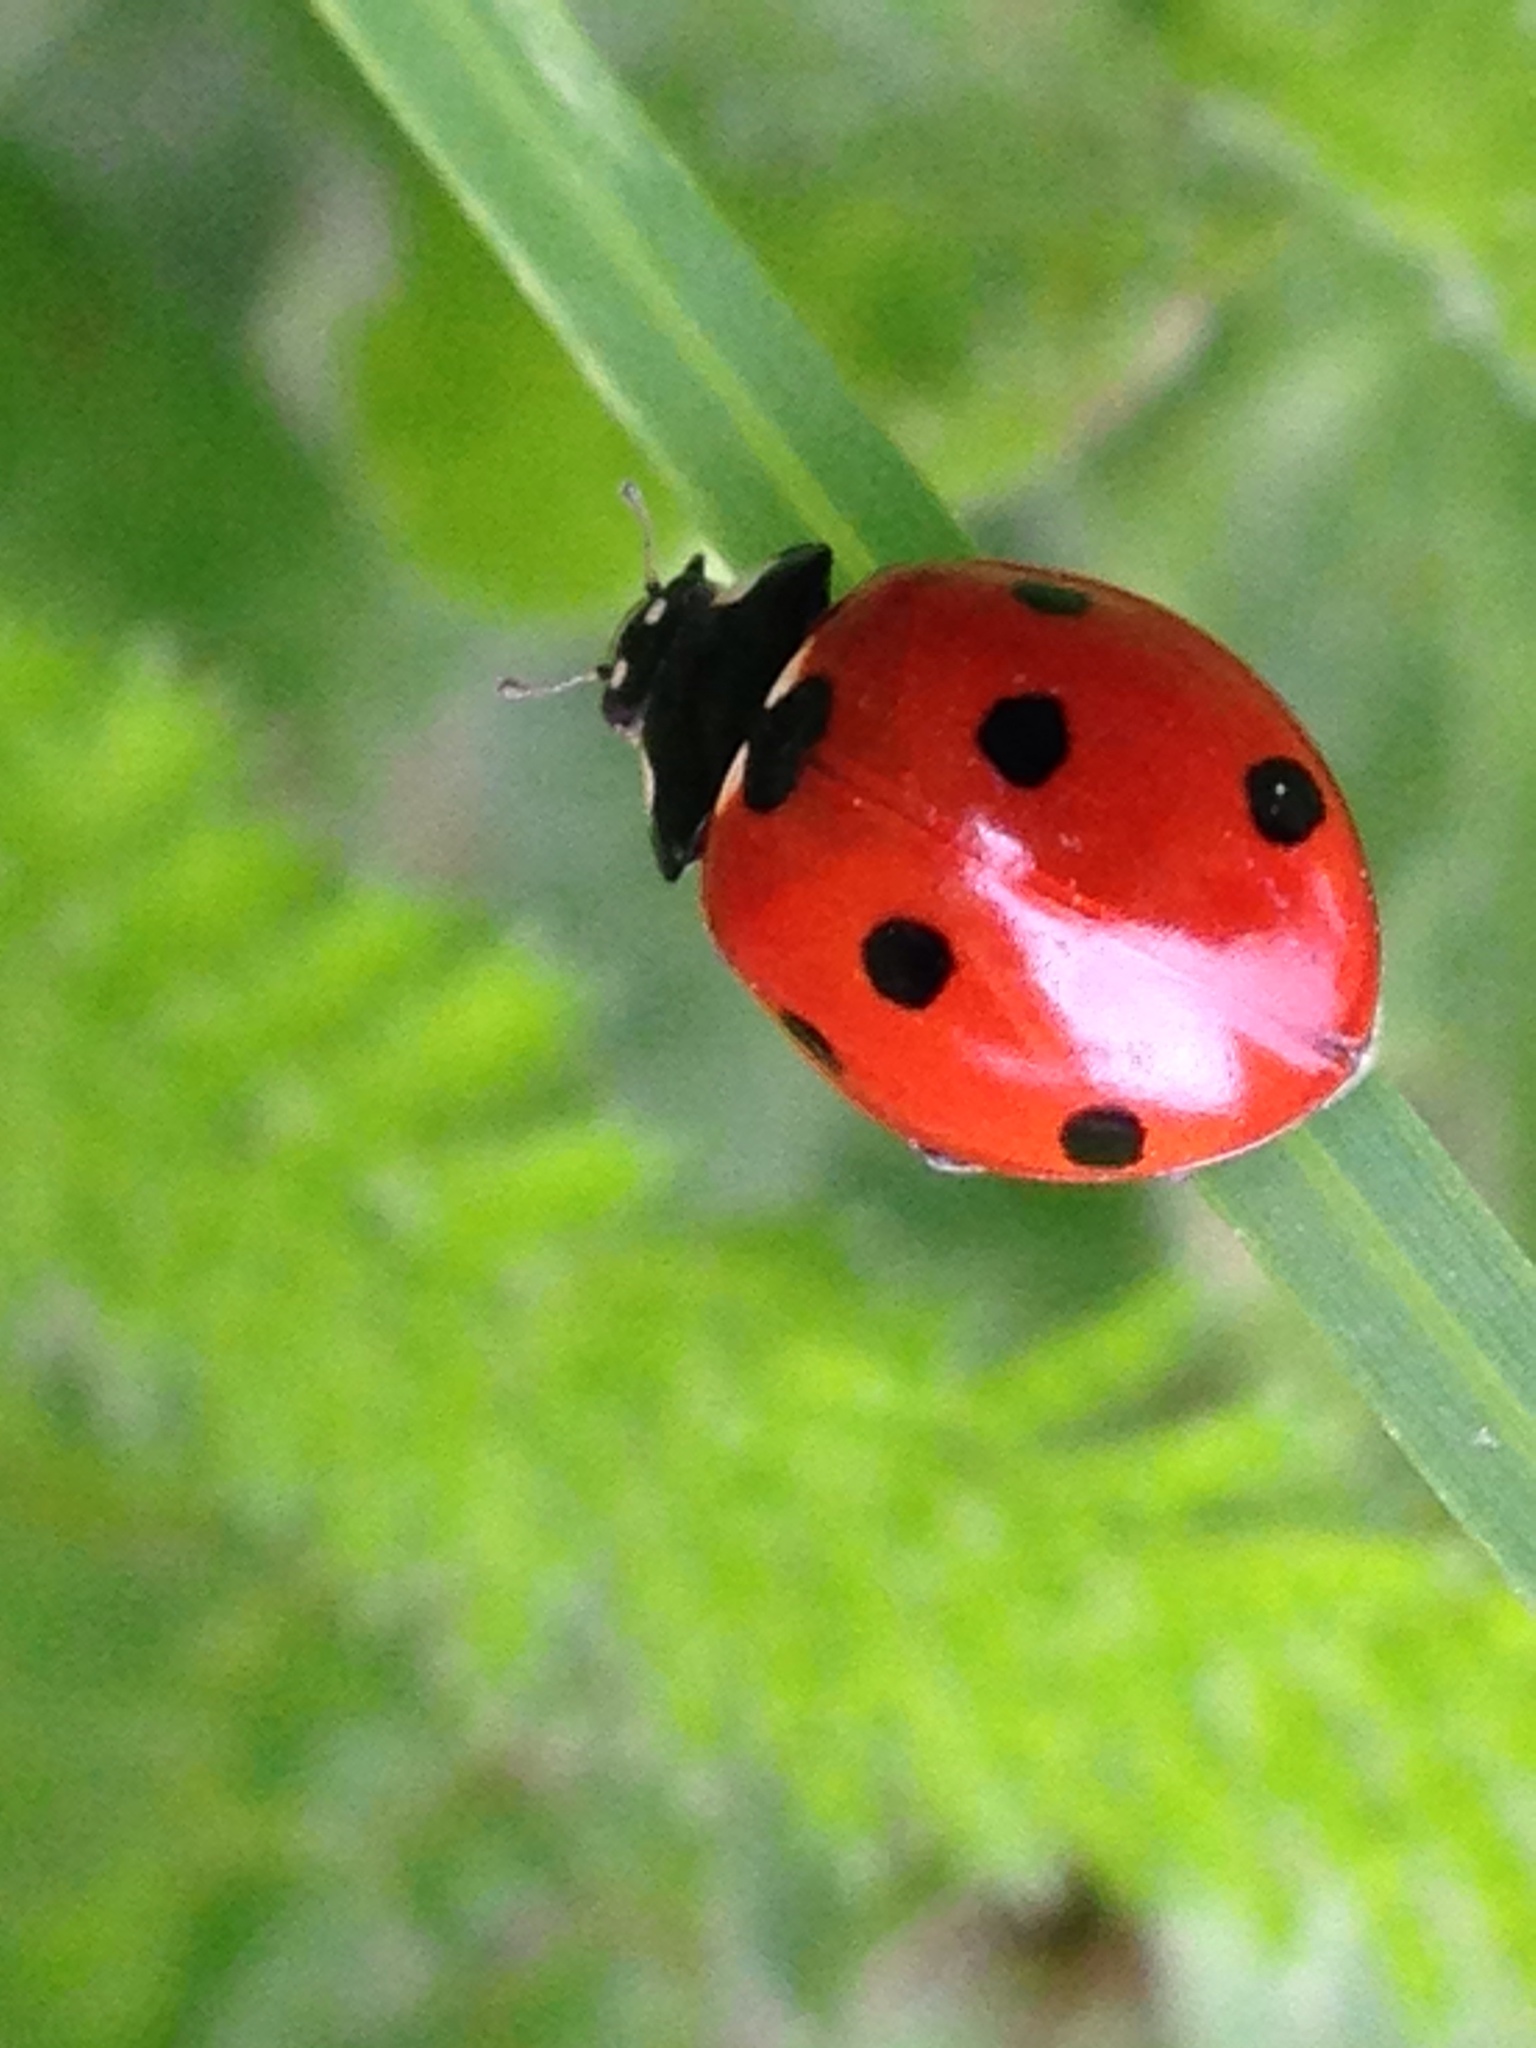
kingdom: Animalia
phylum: Arthropoda
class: Insecta
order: Coleoptera
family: Coccinellidae
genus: Coccinella
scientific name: Coccinella septempunctata
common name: Sevenspotted lady beetle
